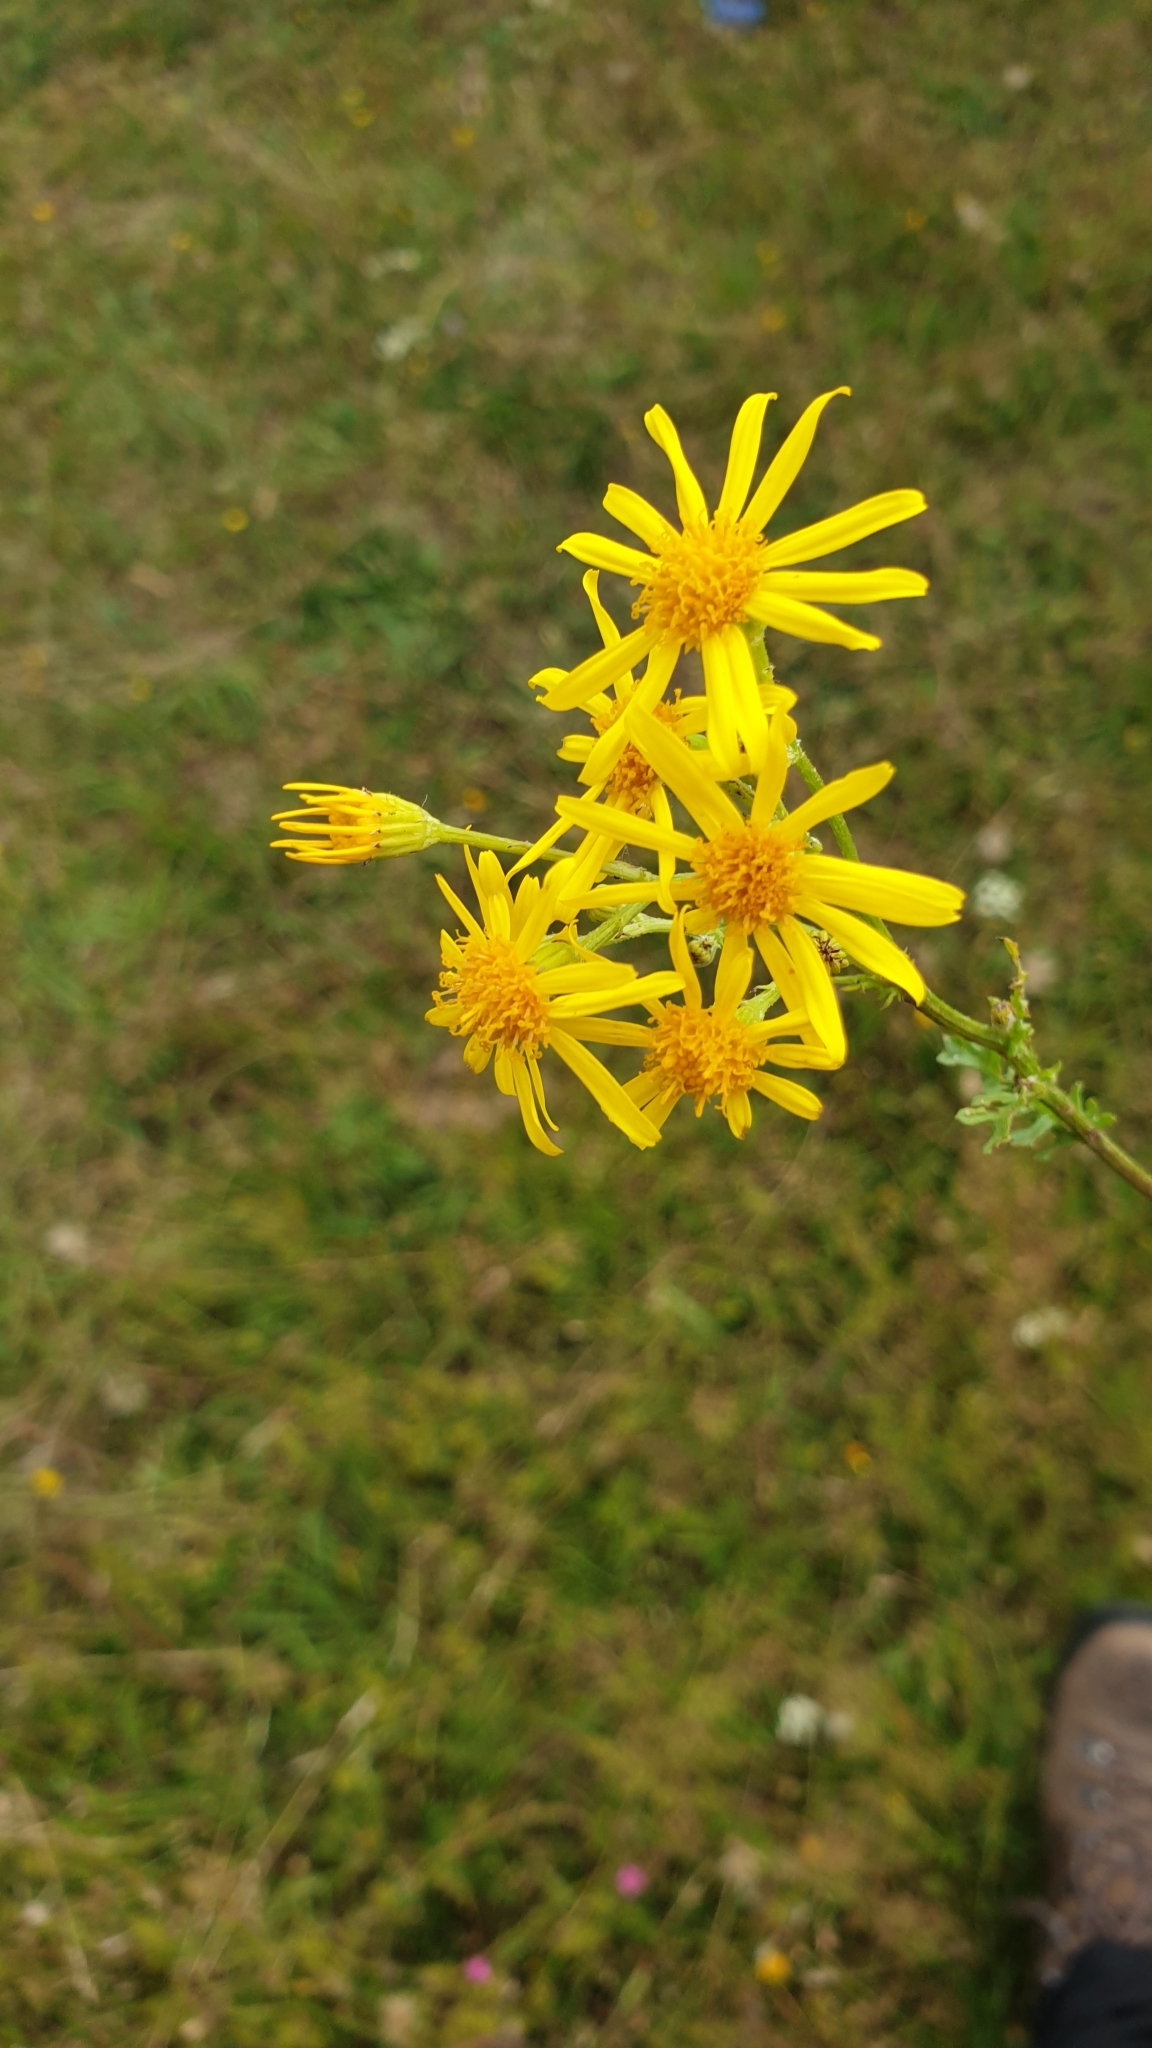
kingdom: Plantae
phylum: Tracheophyta
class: Magnoliopsida
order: Asterales
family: Asteraceae
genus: Jacobaea
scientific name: Jacobaea vulgaris
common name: Stinking willie
